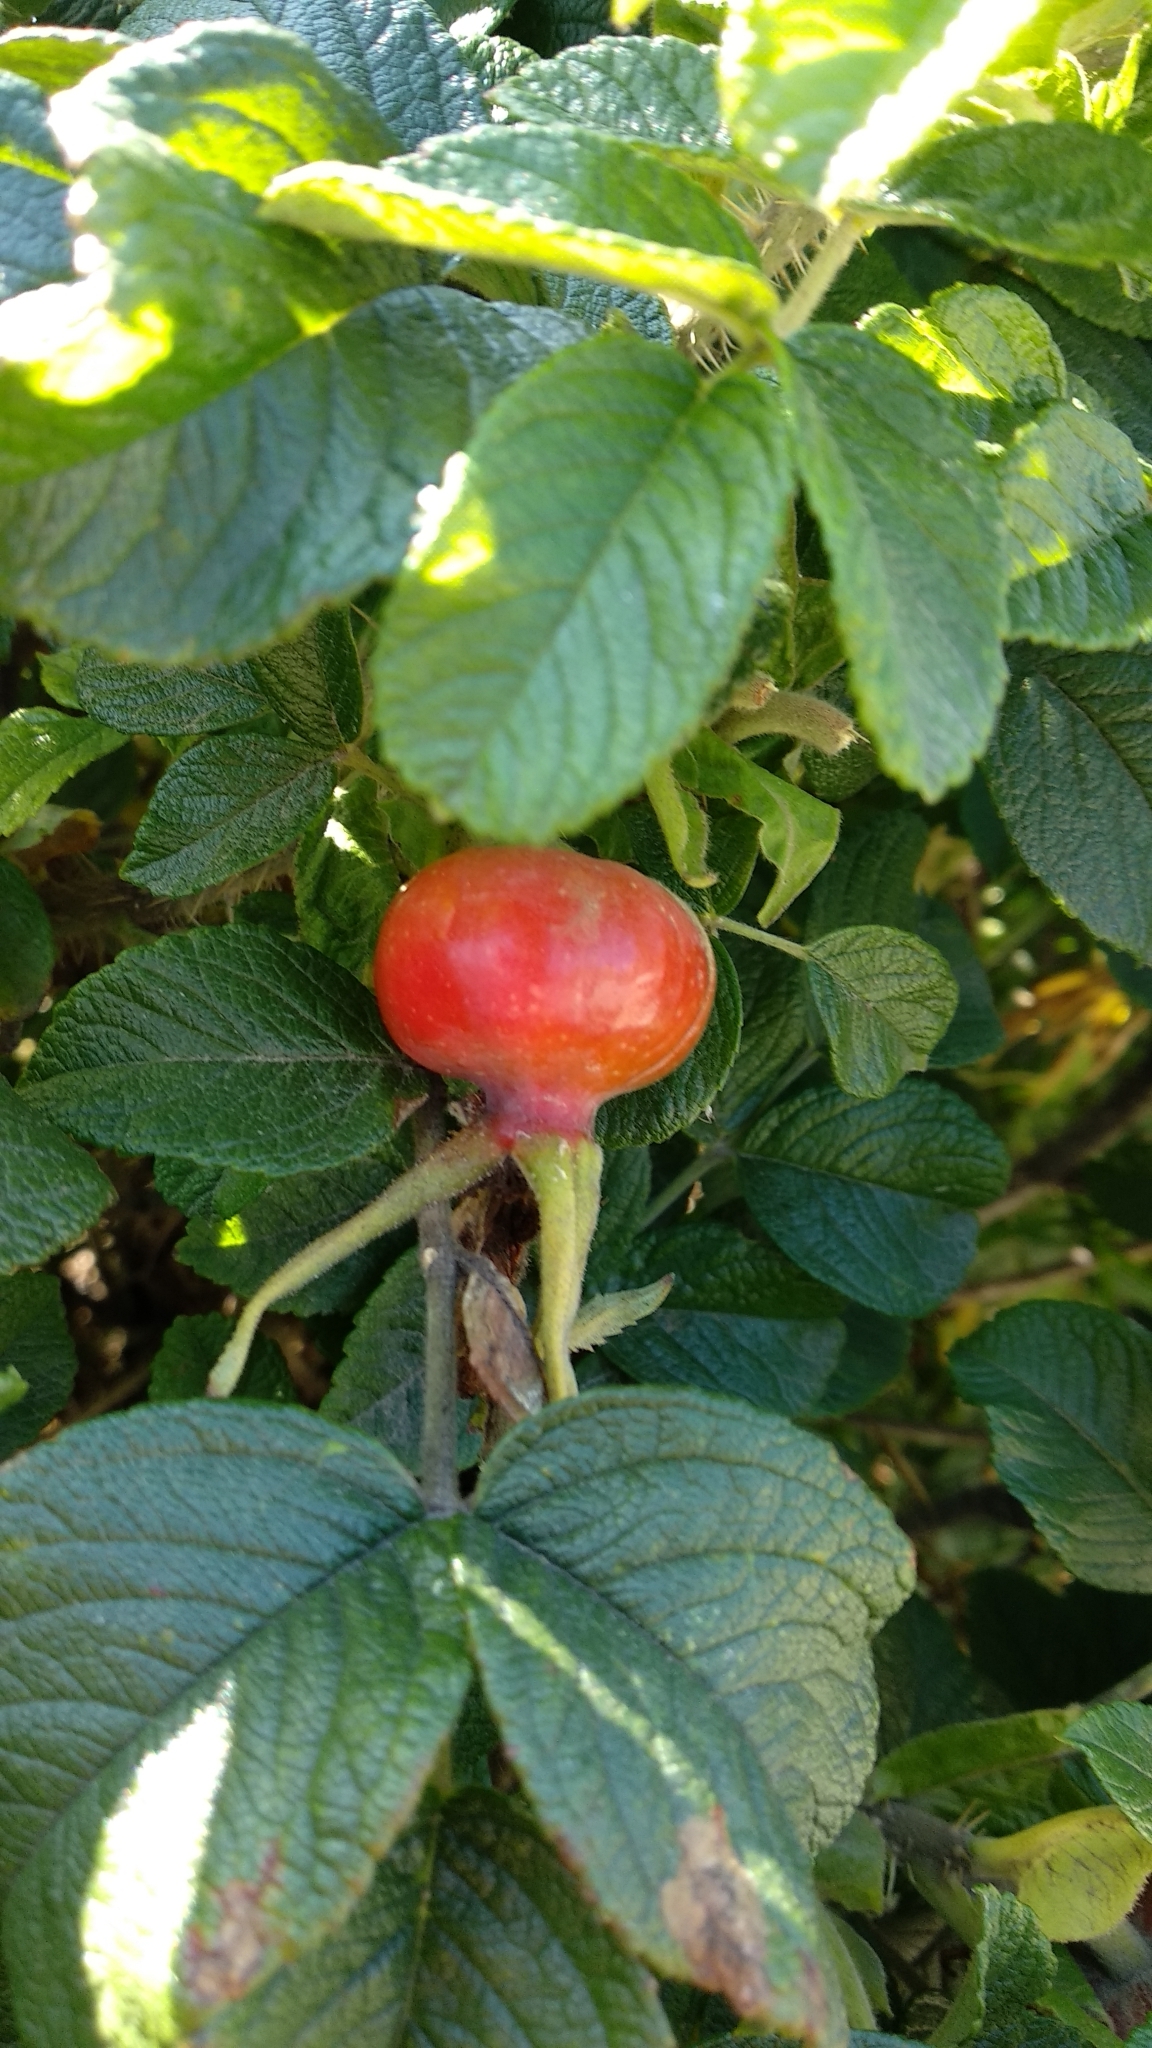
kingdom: Plantae
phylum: Tracheophyta
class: Magnoliopsida
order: Rosales
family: Rosaceae
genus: Rosa
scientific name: Rosa rugosa
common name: Japanese rose
